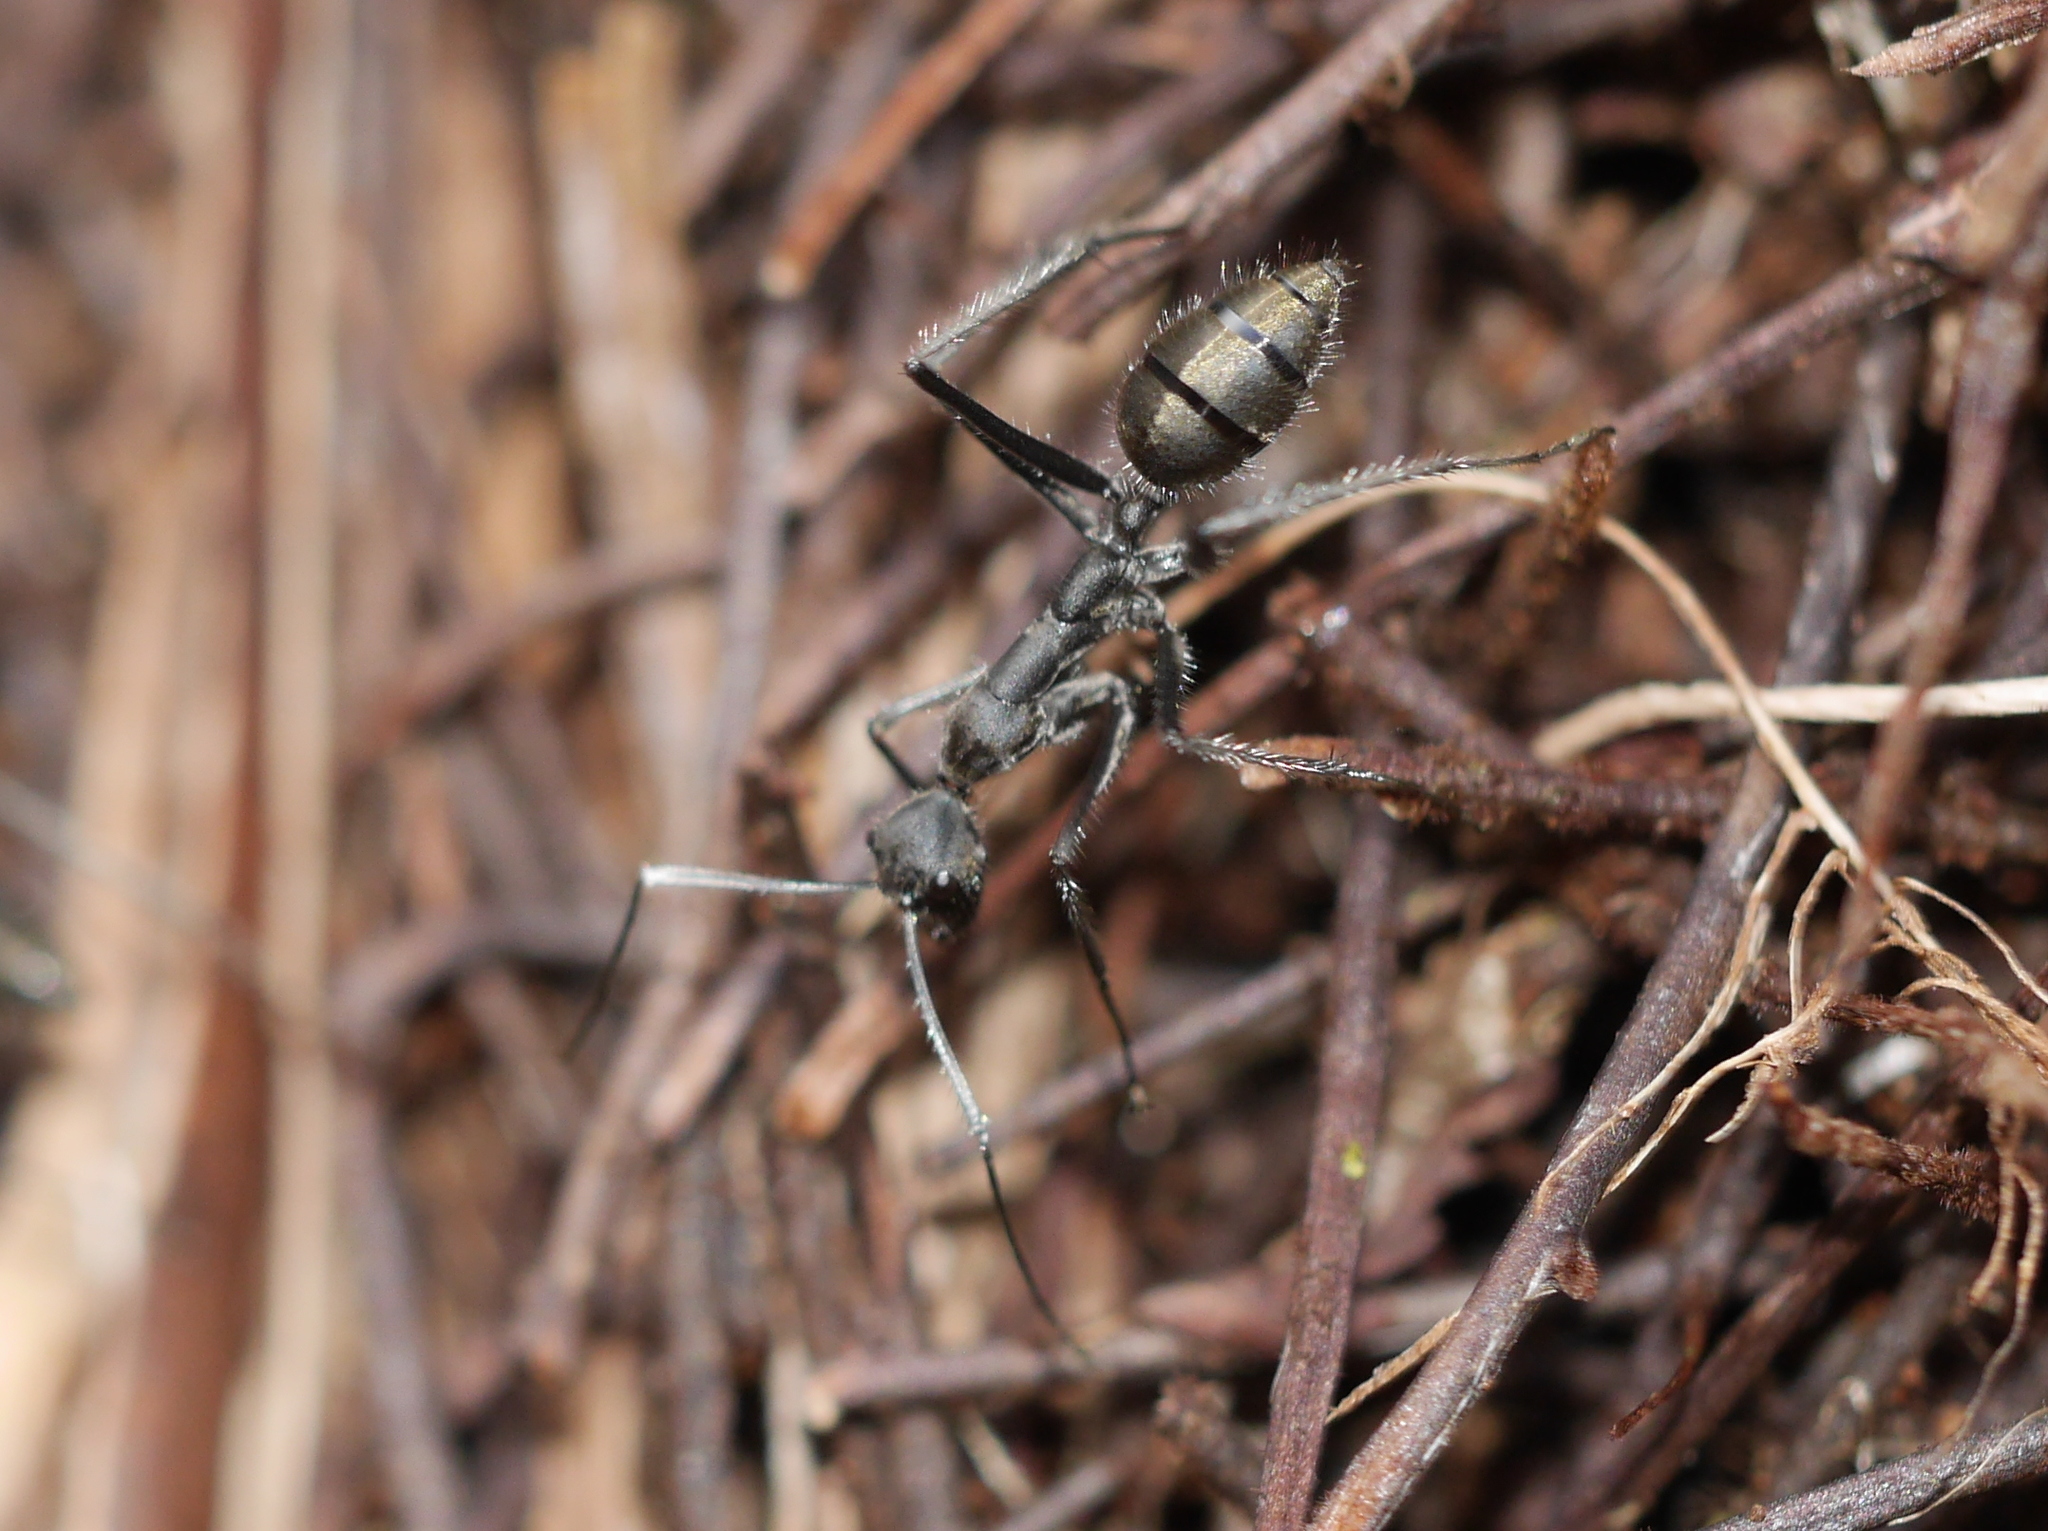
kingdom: Animalia
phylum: Arthropoda
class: Insecta
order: Hymenoptera
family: Formicidae
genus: Camponotus
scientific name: Camponotus camelinus
